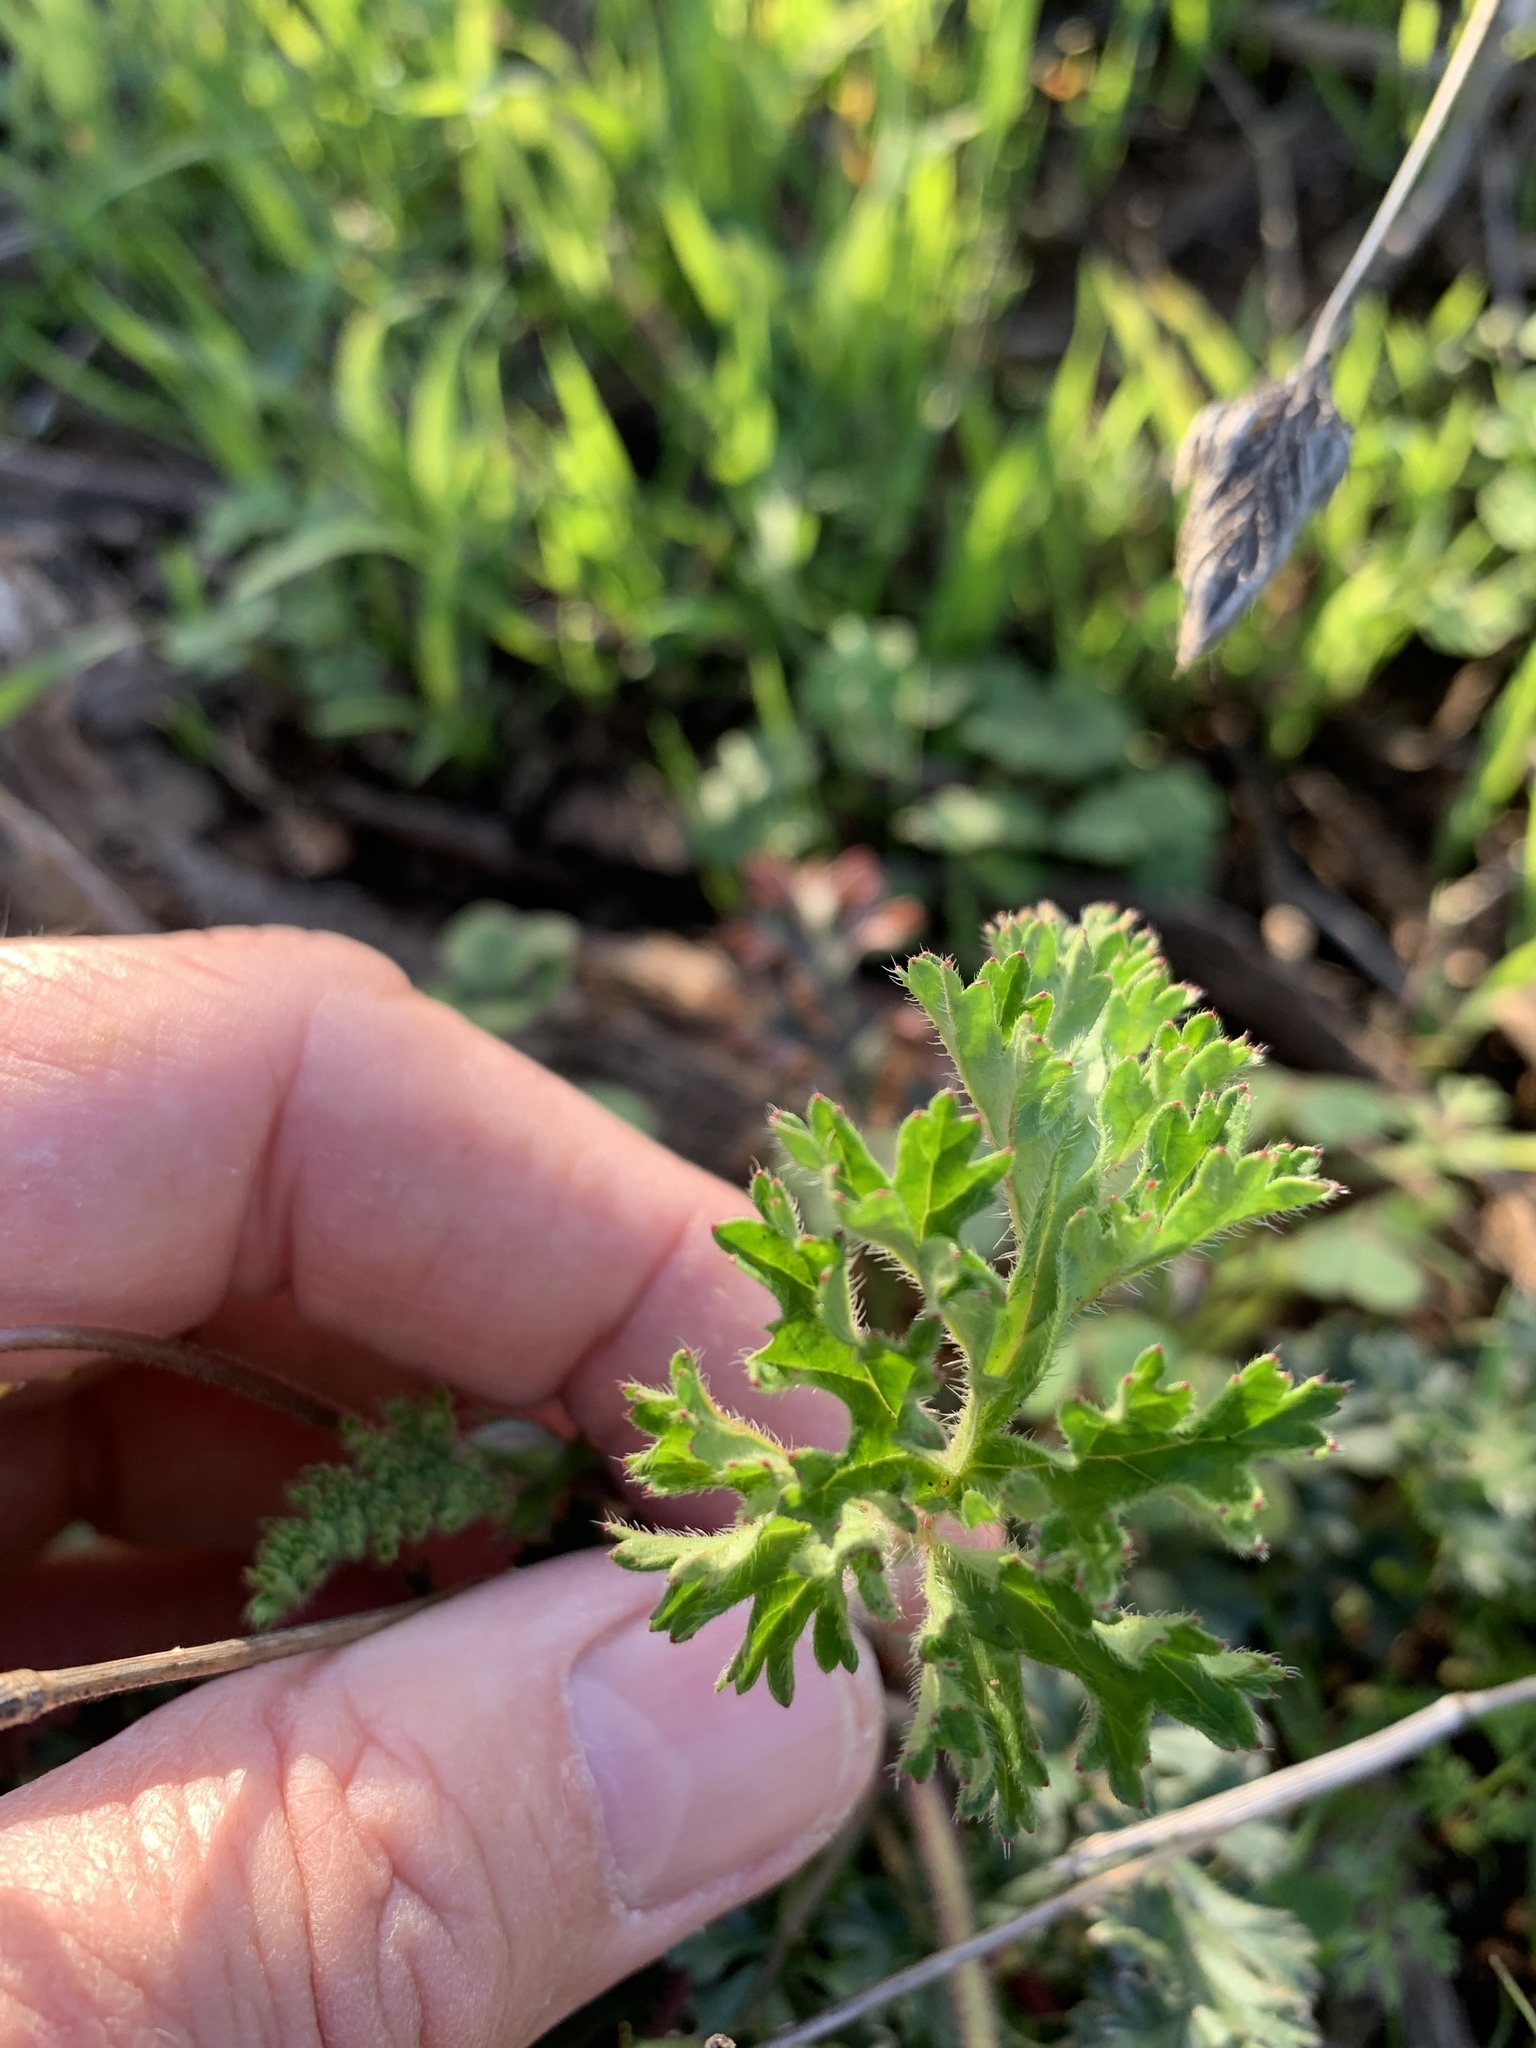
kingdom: Plantae
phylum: Tracheophyta
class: Magnoliopsida
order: Geraniales
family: Geraniaceae
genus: Pelargonium
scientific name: Pelargonium myrrhifolium
